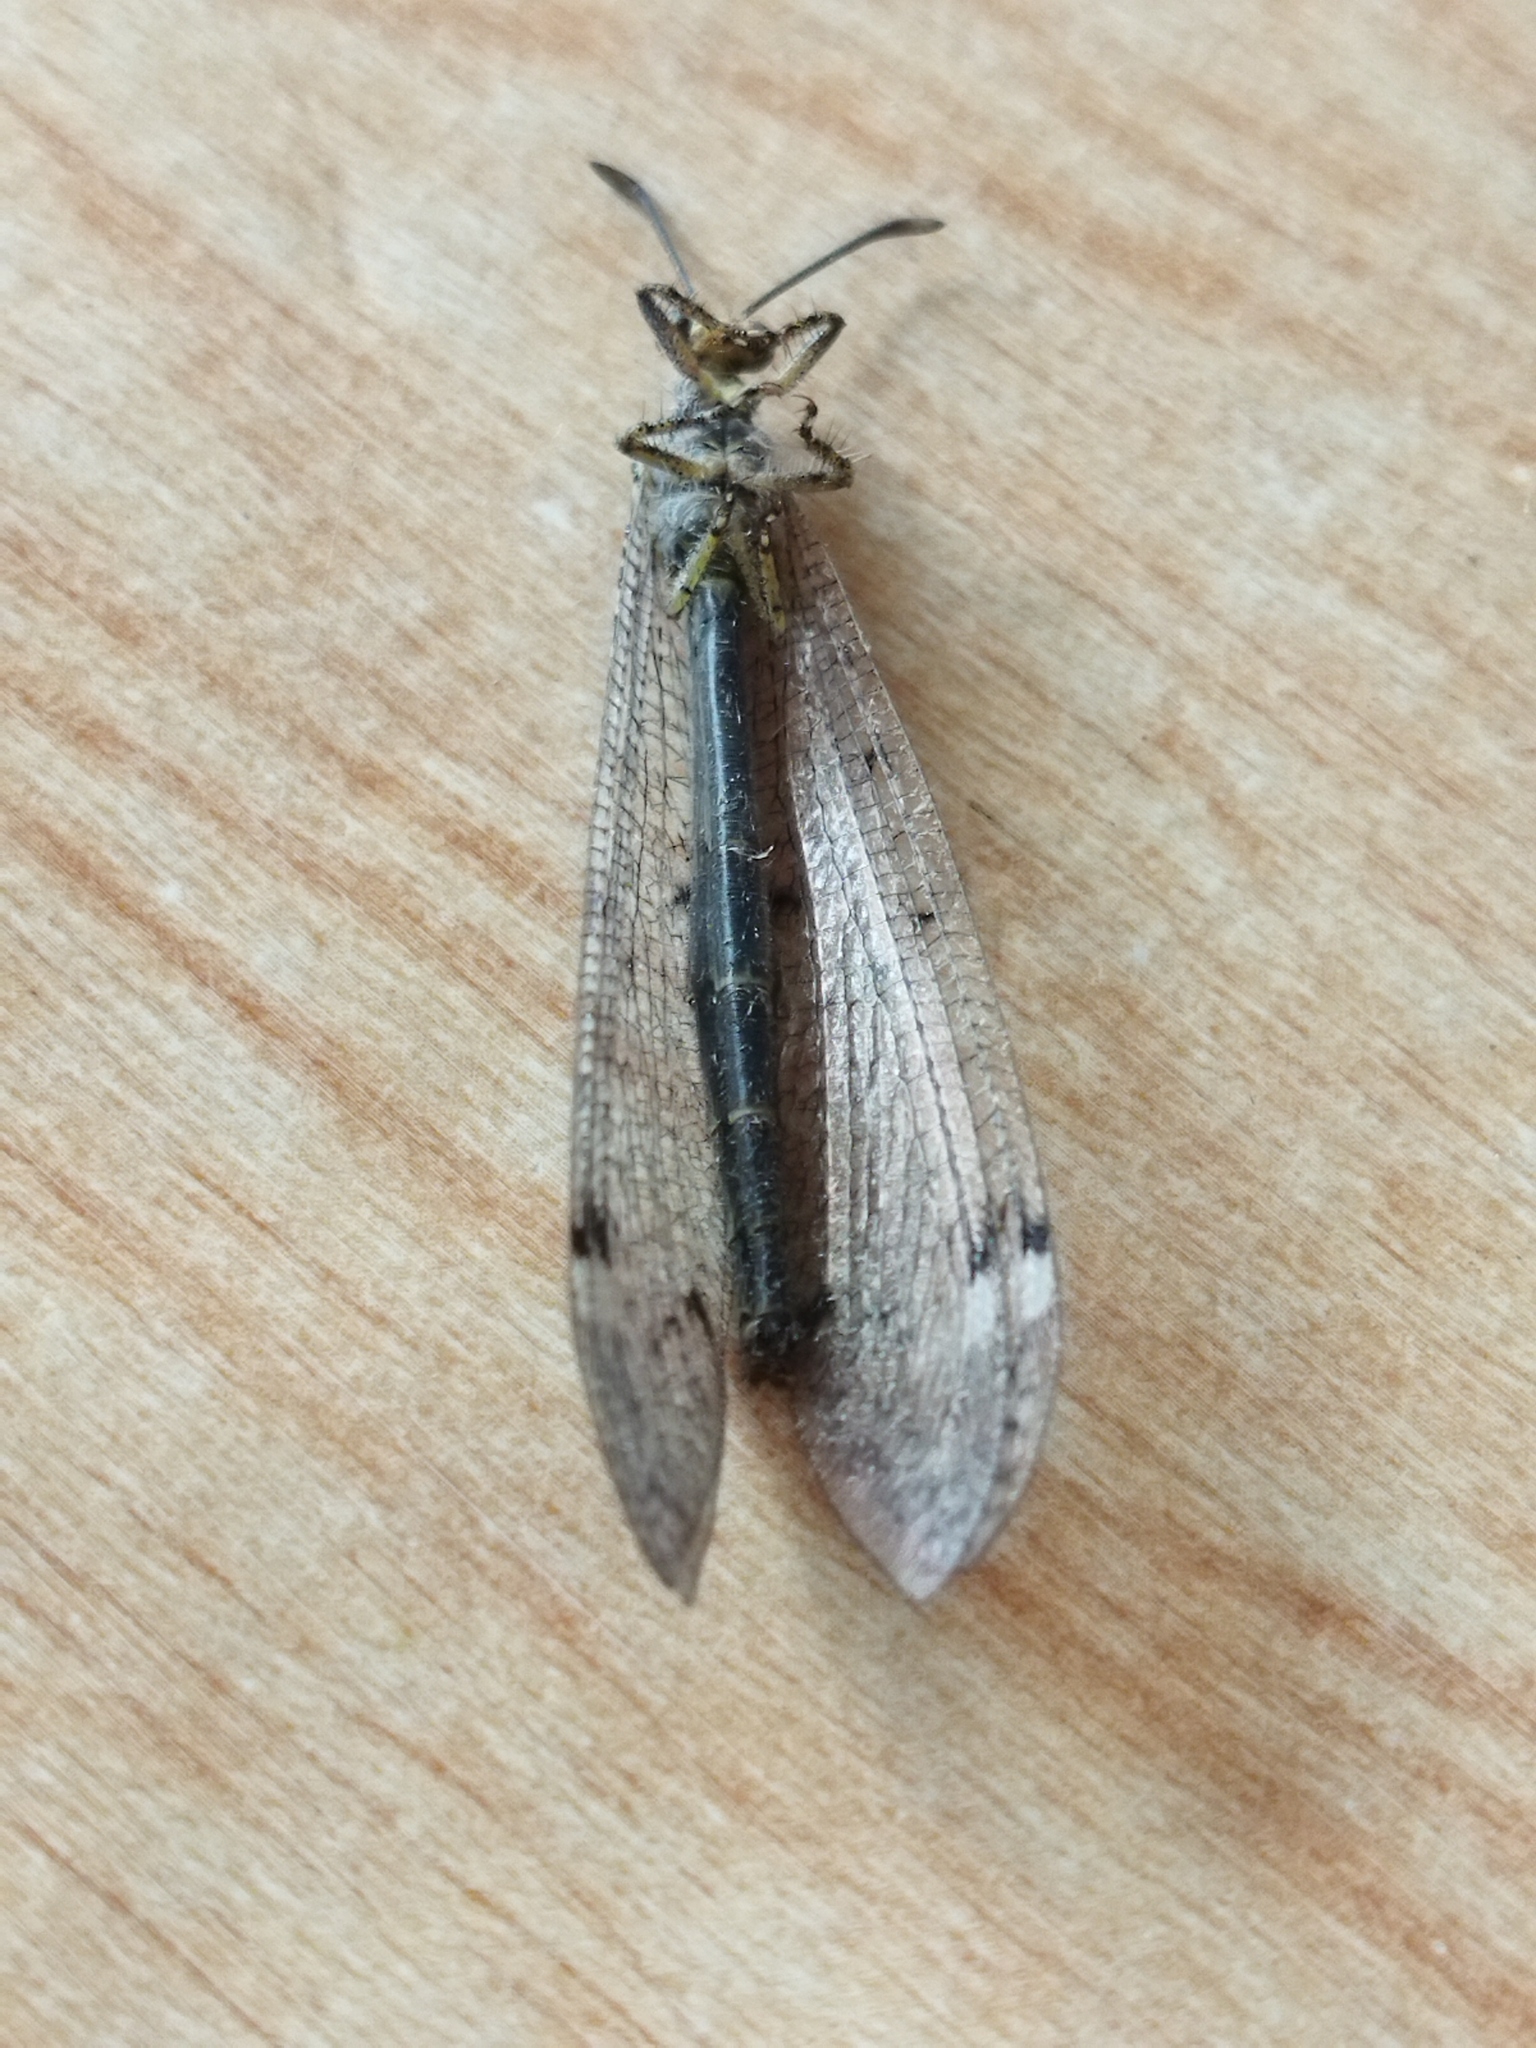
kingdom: Animalia
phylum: Arthropoda
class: Insecta
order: Neuroptera
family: Myrmeleontidae
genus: Distoleon
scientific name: Distoleon tetragrammicus
